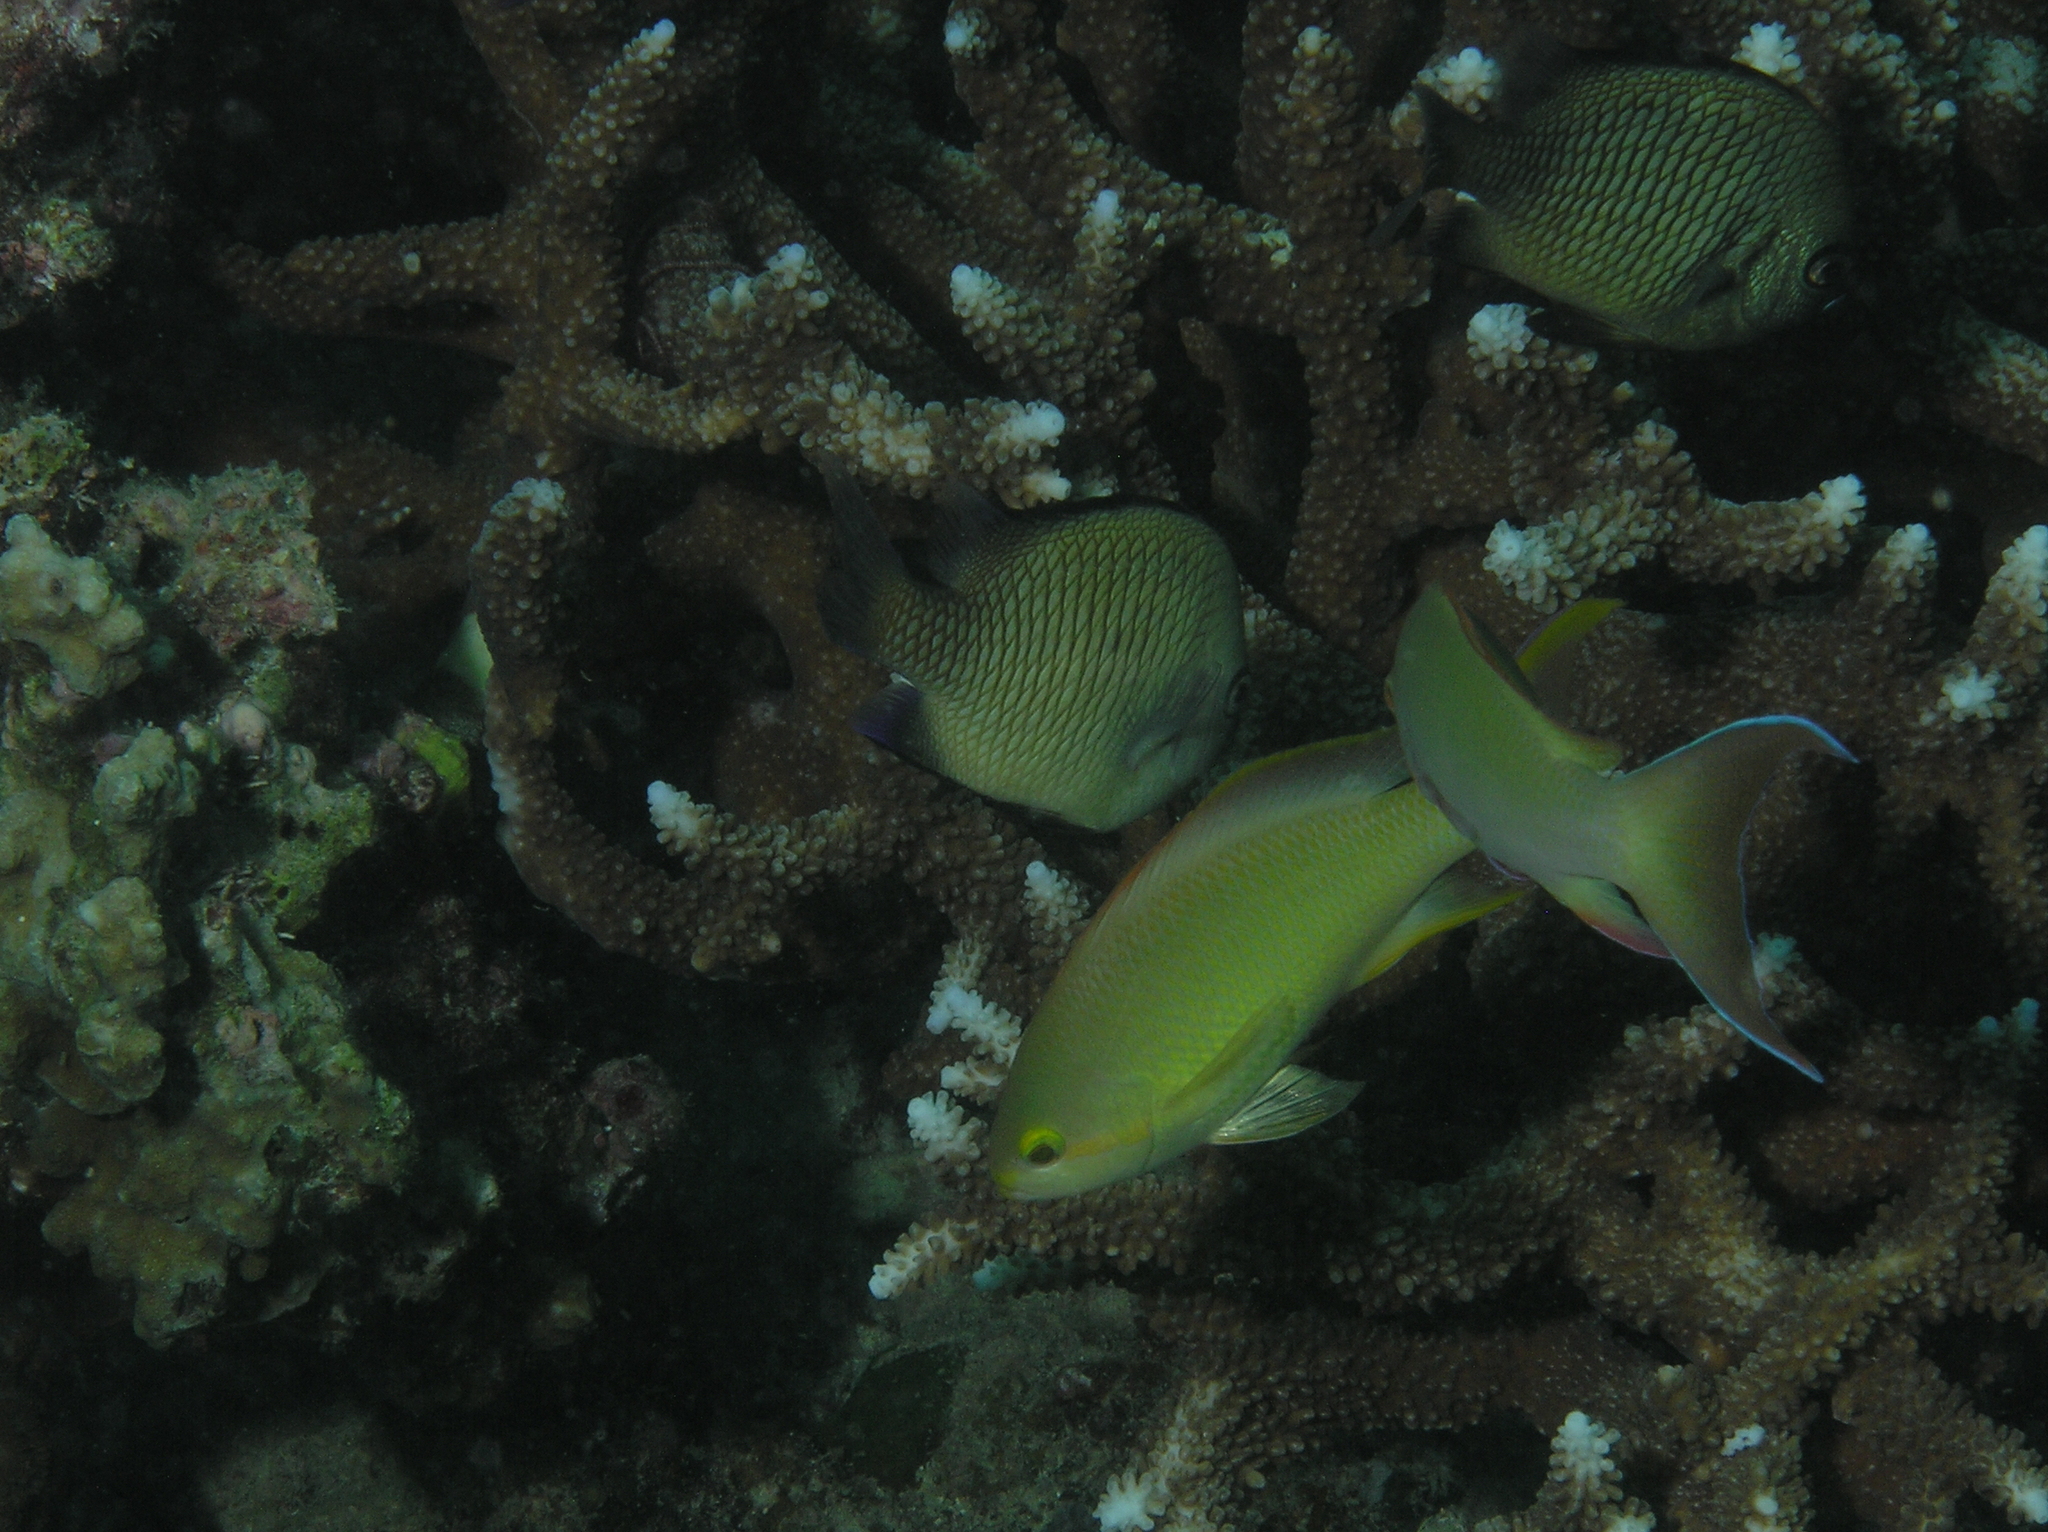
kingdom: Animalia
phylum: Chordata
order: Perciformes
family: Serranidae
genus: Pseudanthias
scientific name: Pseudanthias huchtii
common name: Pacific basslet
